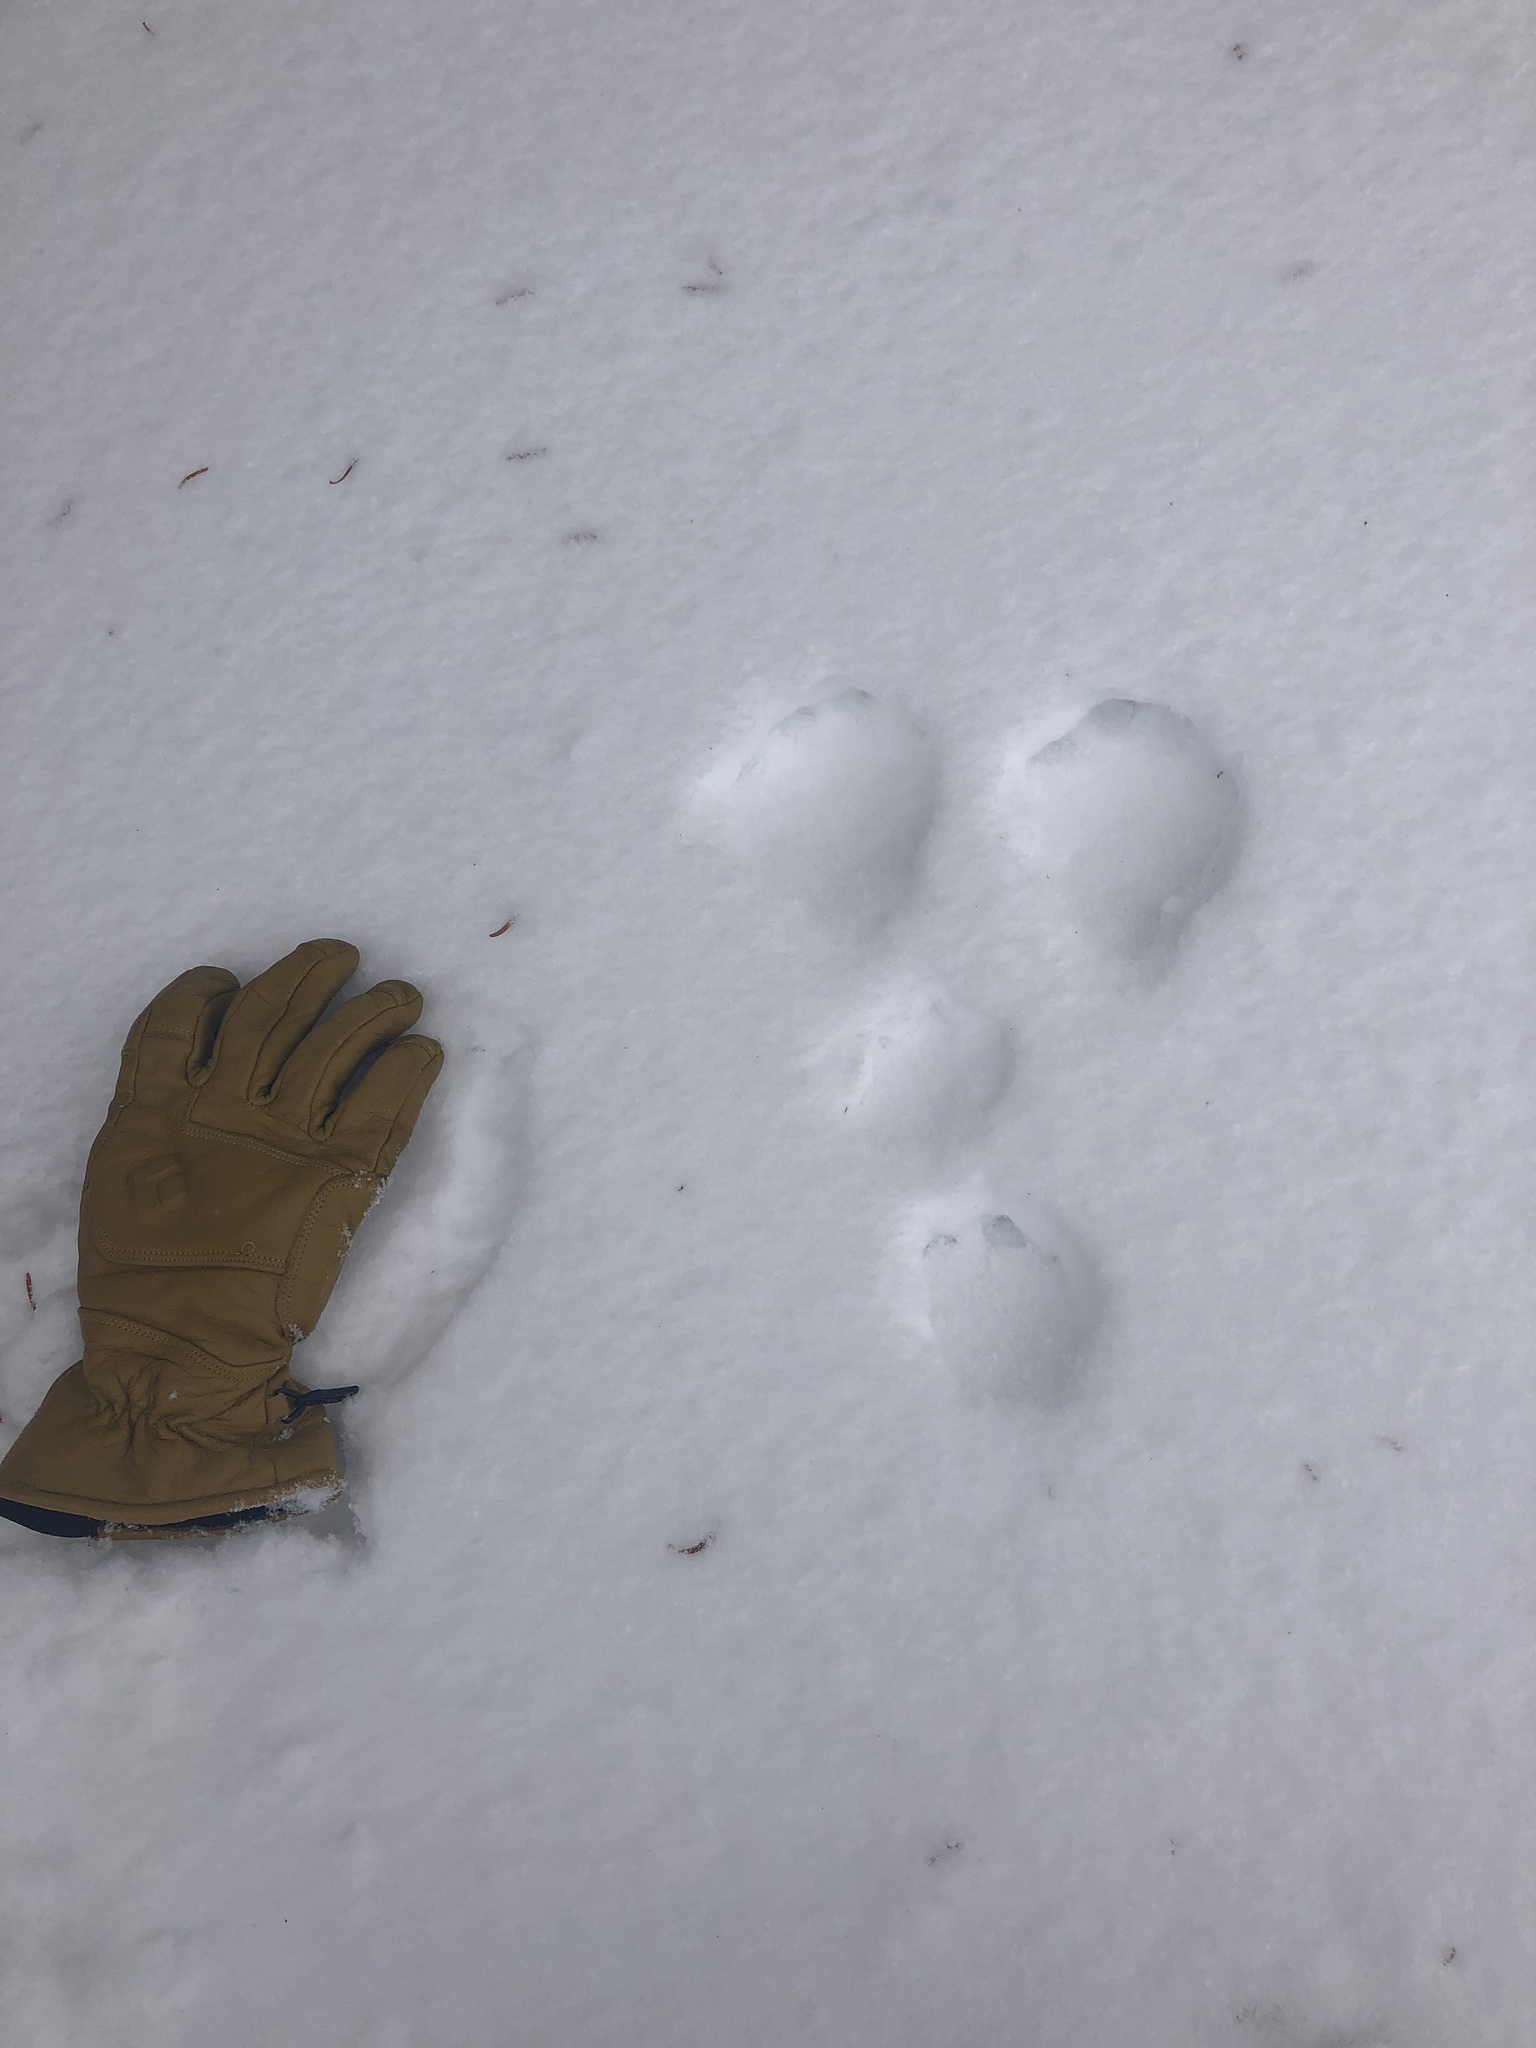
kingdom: Animalia
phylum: Chordata
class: Mammalia
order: Lagomorpha
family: Leporidae
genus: Lepus
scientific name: Lepus americanus
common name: Snowshoe hare
